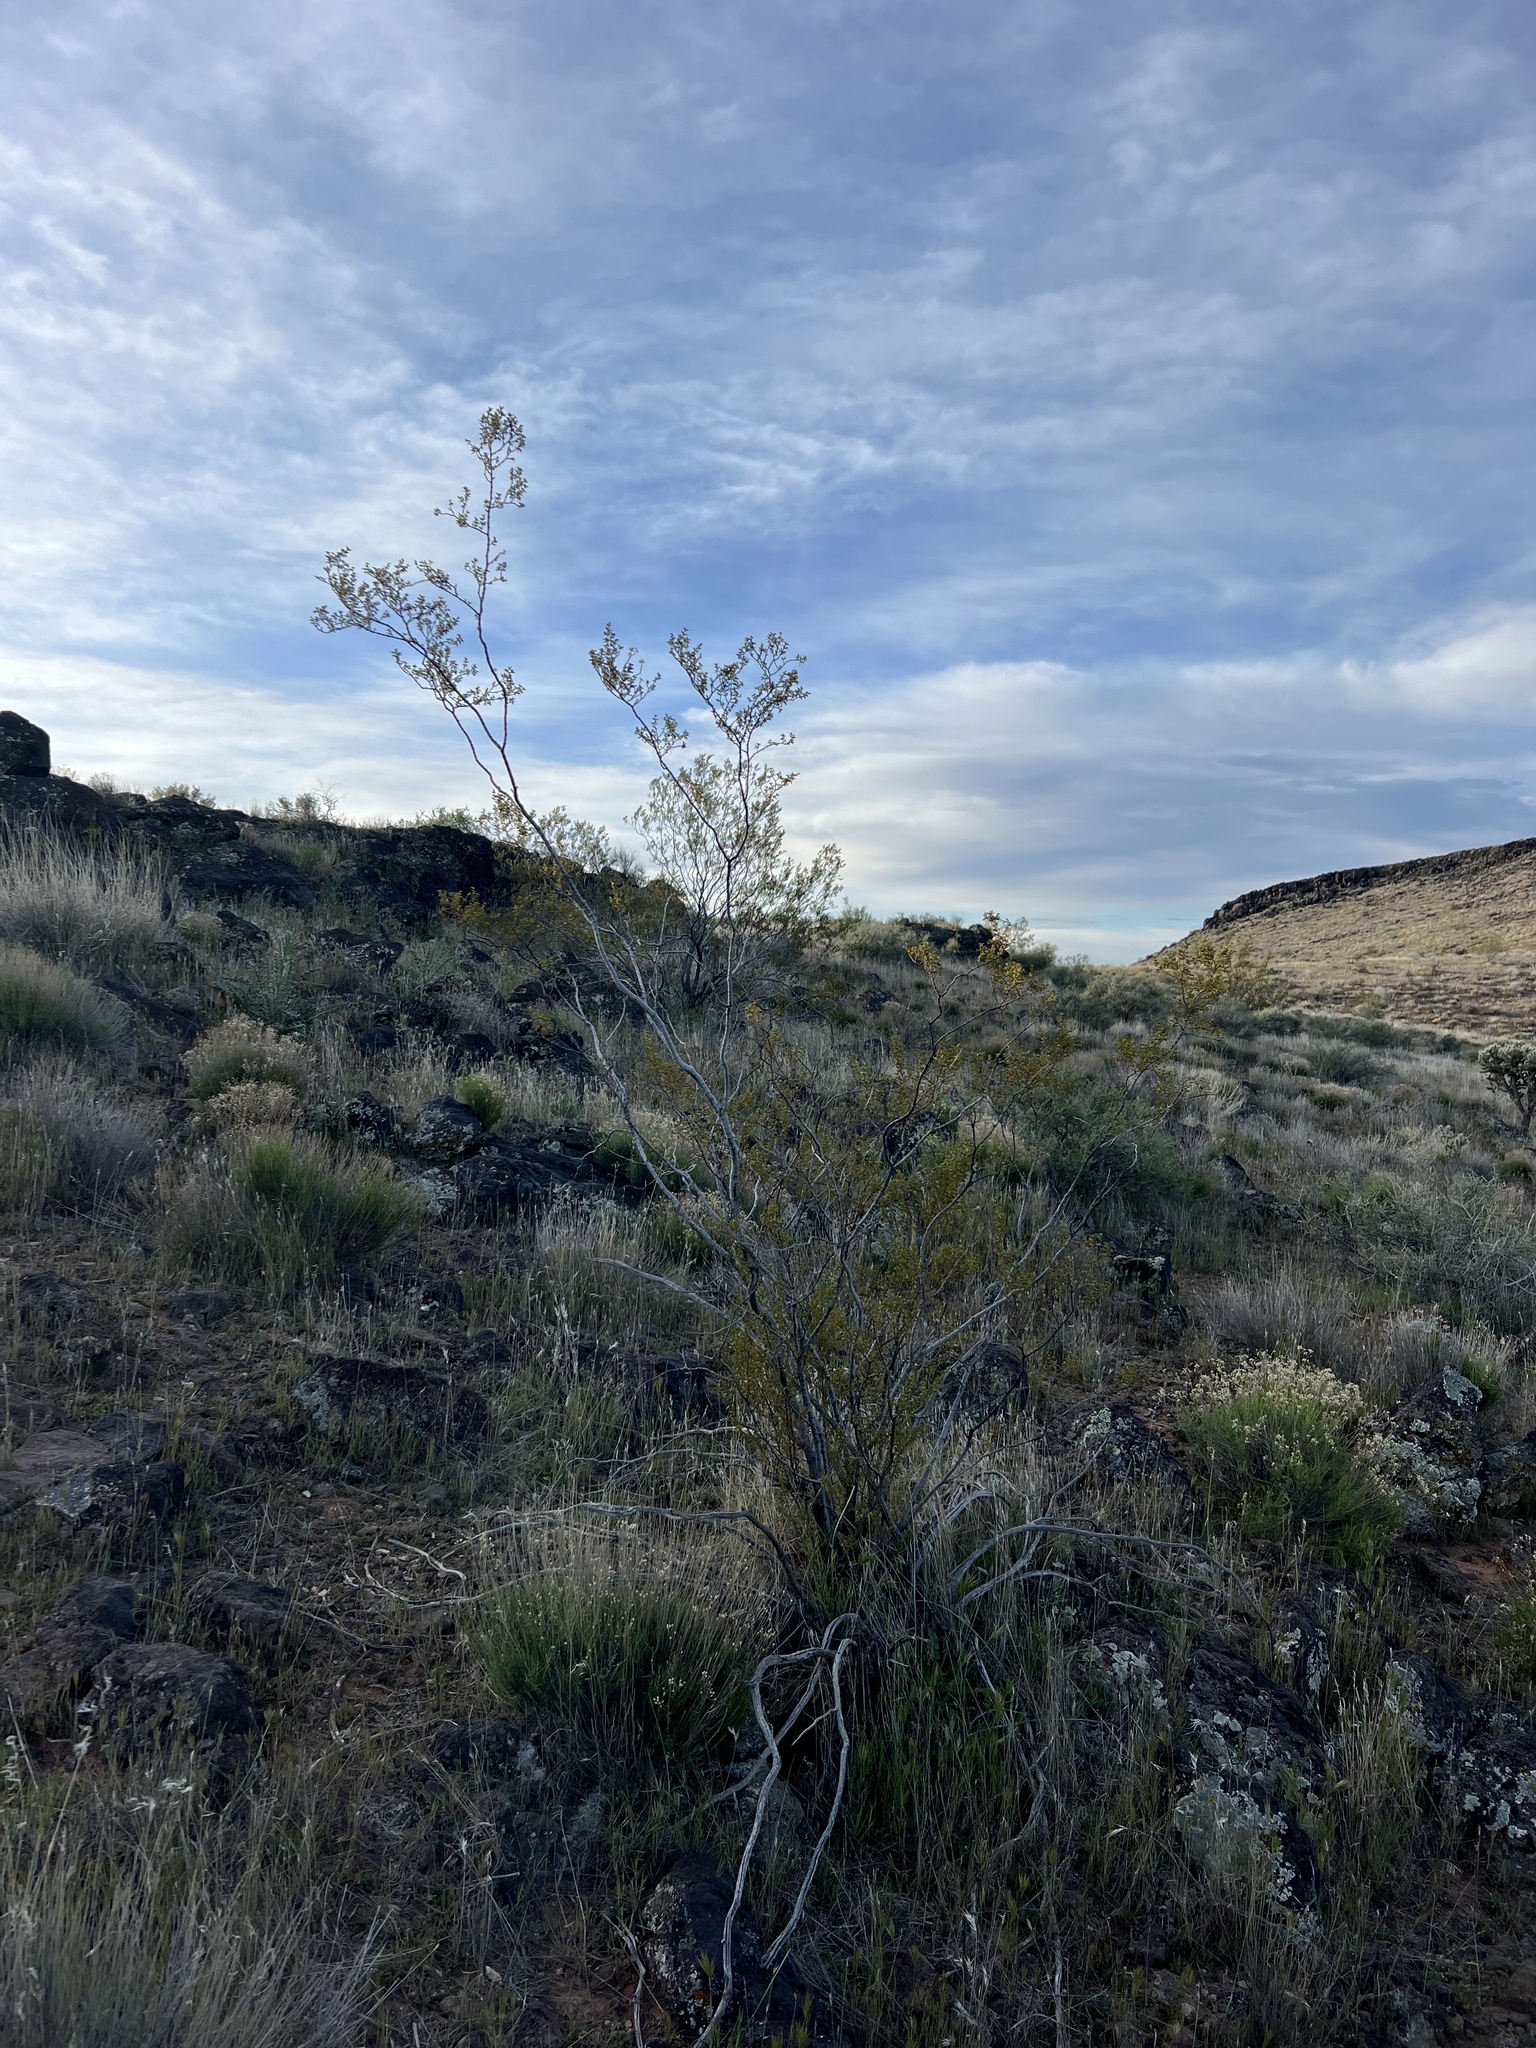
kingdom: Plantae
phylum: Tracheophyta
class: Magnoliopsida
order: Zygophyllales
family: Zygophyllaceae
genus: Larrea
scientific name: Larrea tridentata
